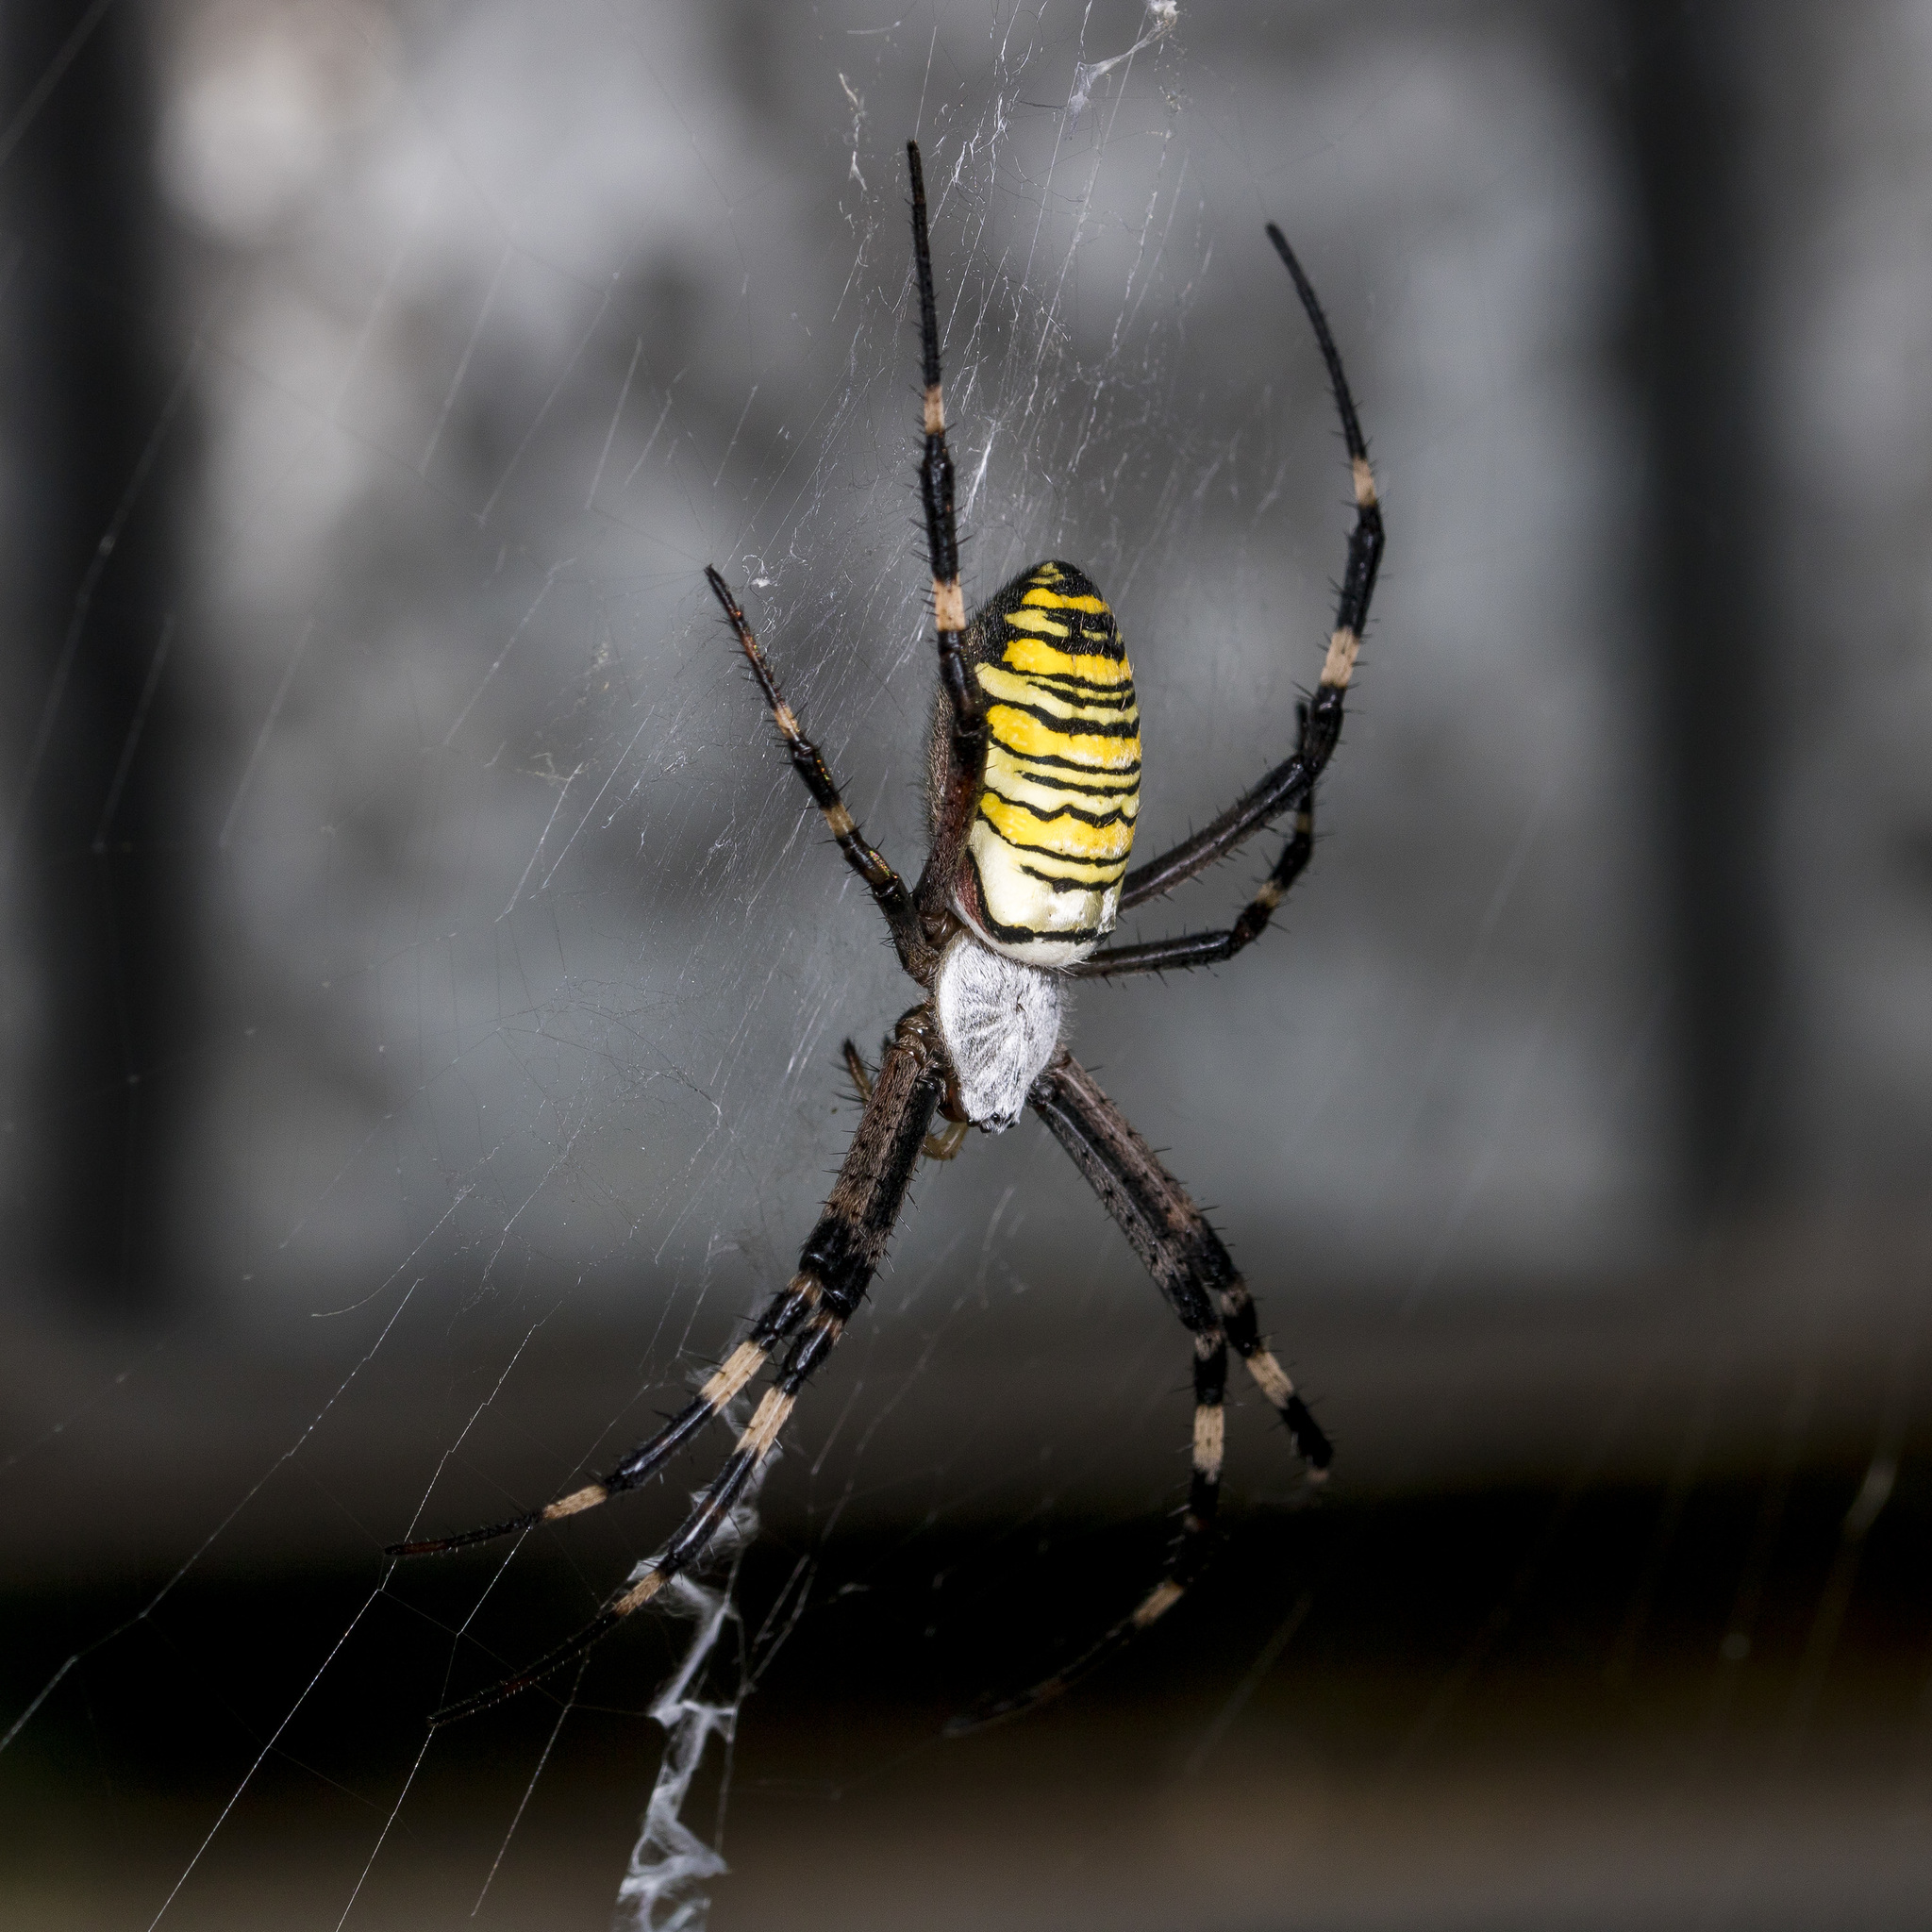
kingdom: Animalia
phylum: Arthropoda
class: Arachnida
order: Araneae
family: Araneidae
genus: Argiope
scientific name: Argiope bruennichi
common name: Wasp spider
